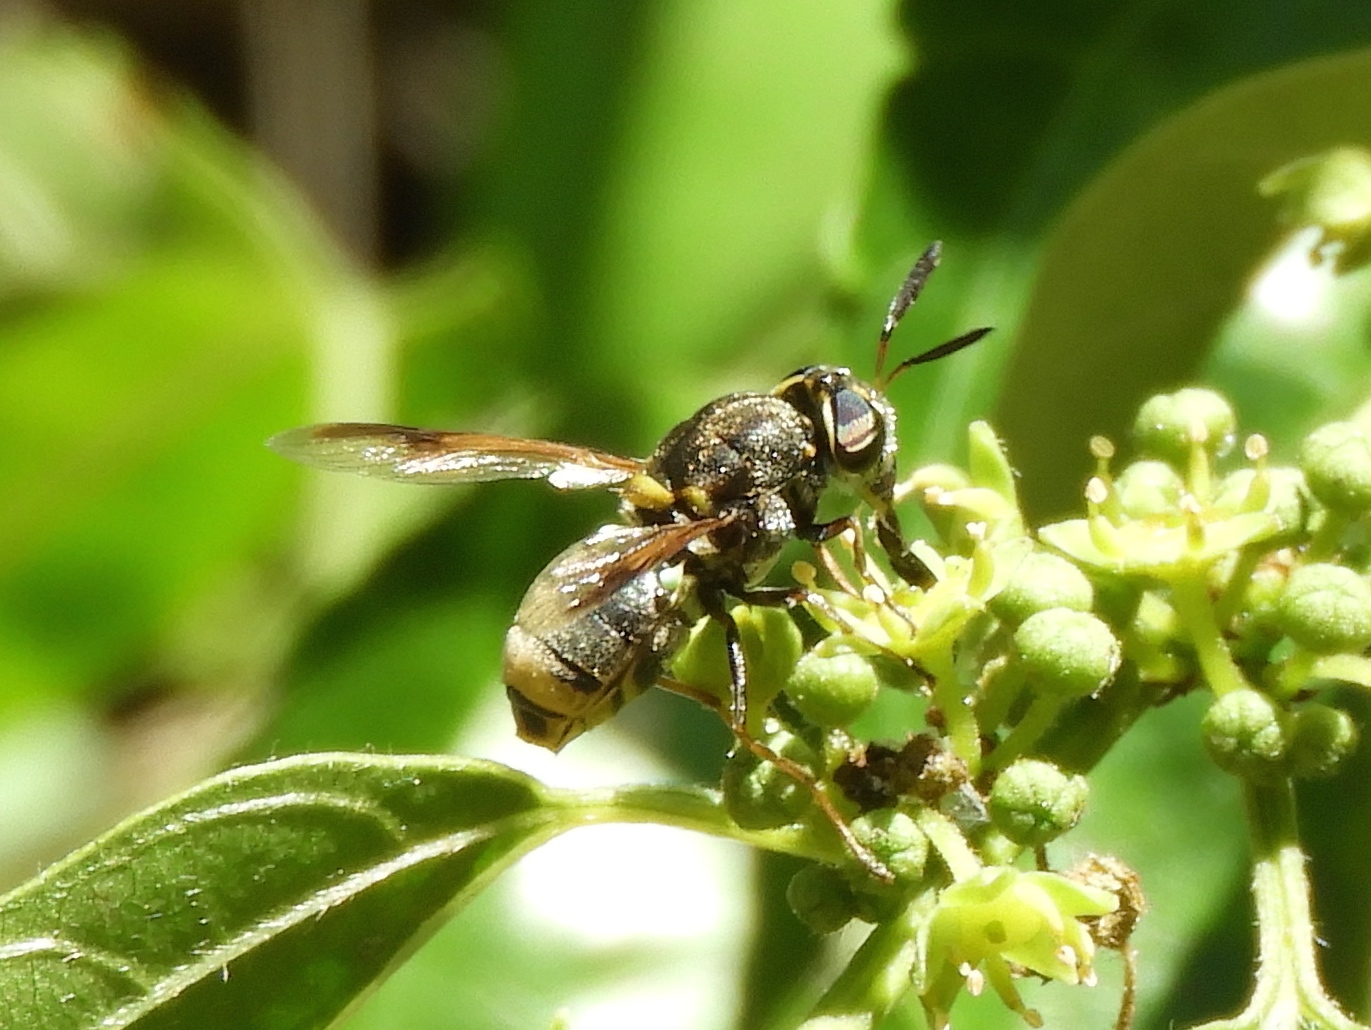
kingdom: Animalia
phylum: Arthropoda
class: Insecta
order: Diptera
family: Stratiomyidae
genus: Hoplitimyia
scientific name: Hoplitimyia mutabilis
